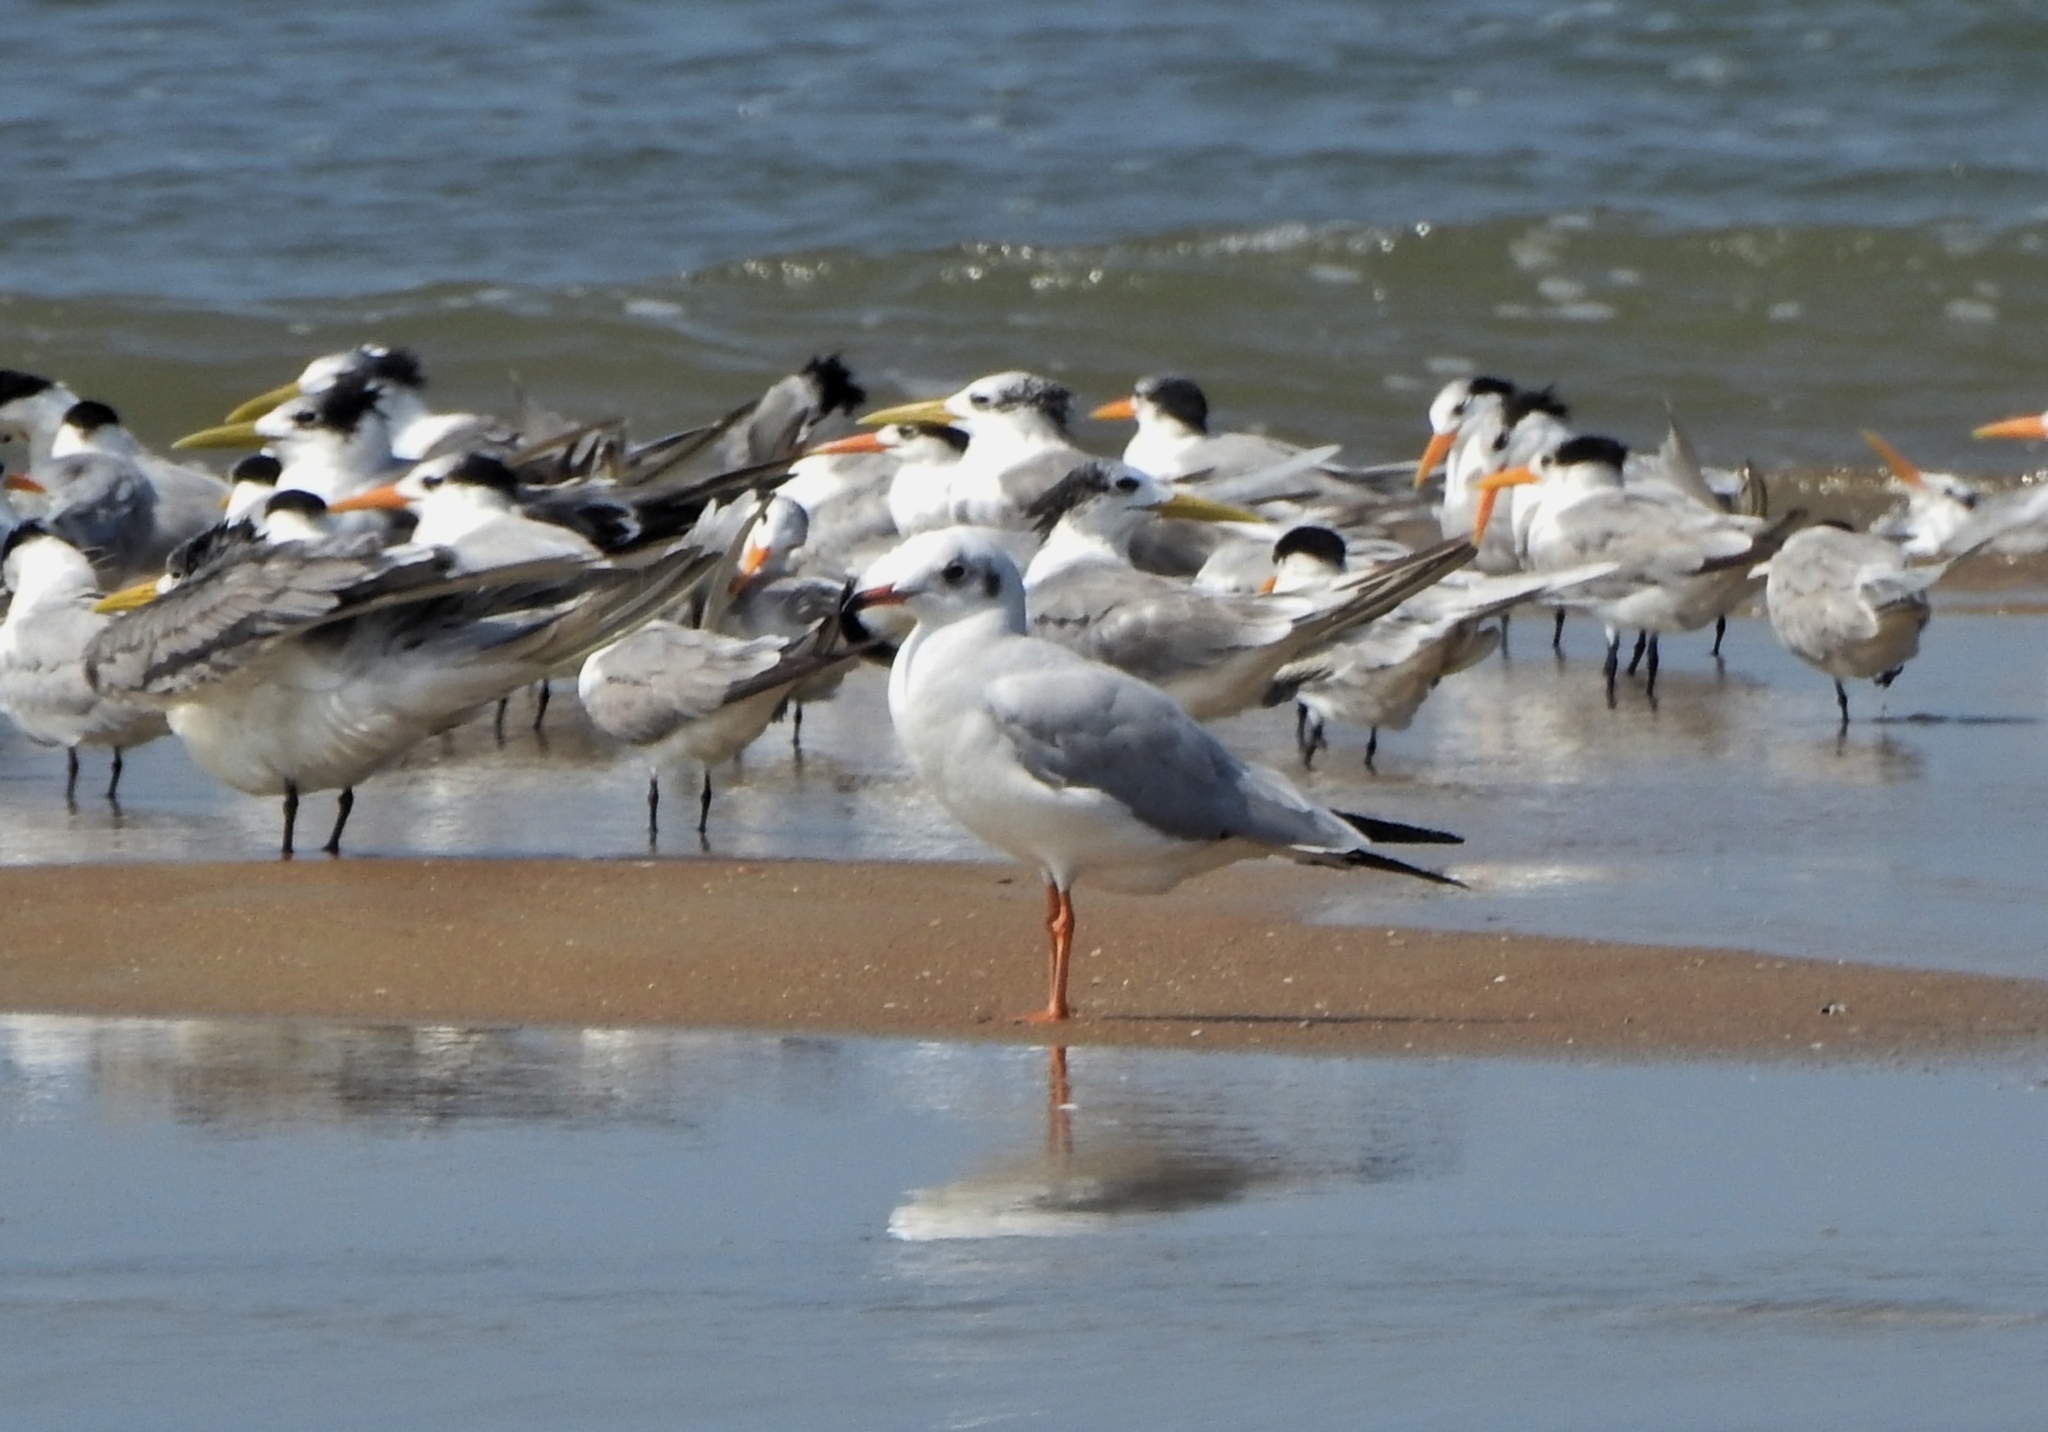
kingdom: Animalia
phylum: Chordata
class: Aves
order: Charadriiformes
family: Laridae
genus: Thalasseus
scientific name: Thalasseus bergii
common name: Greater crested tern
